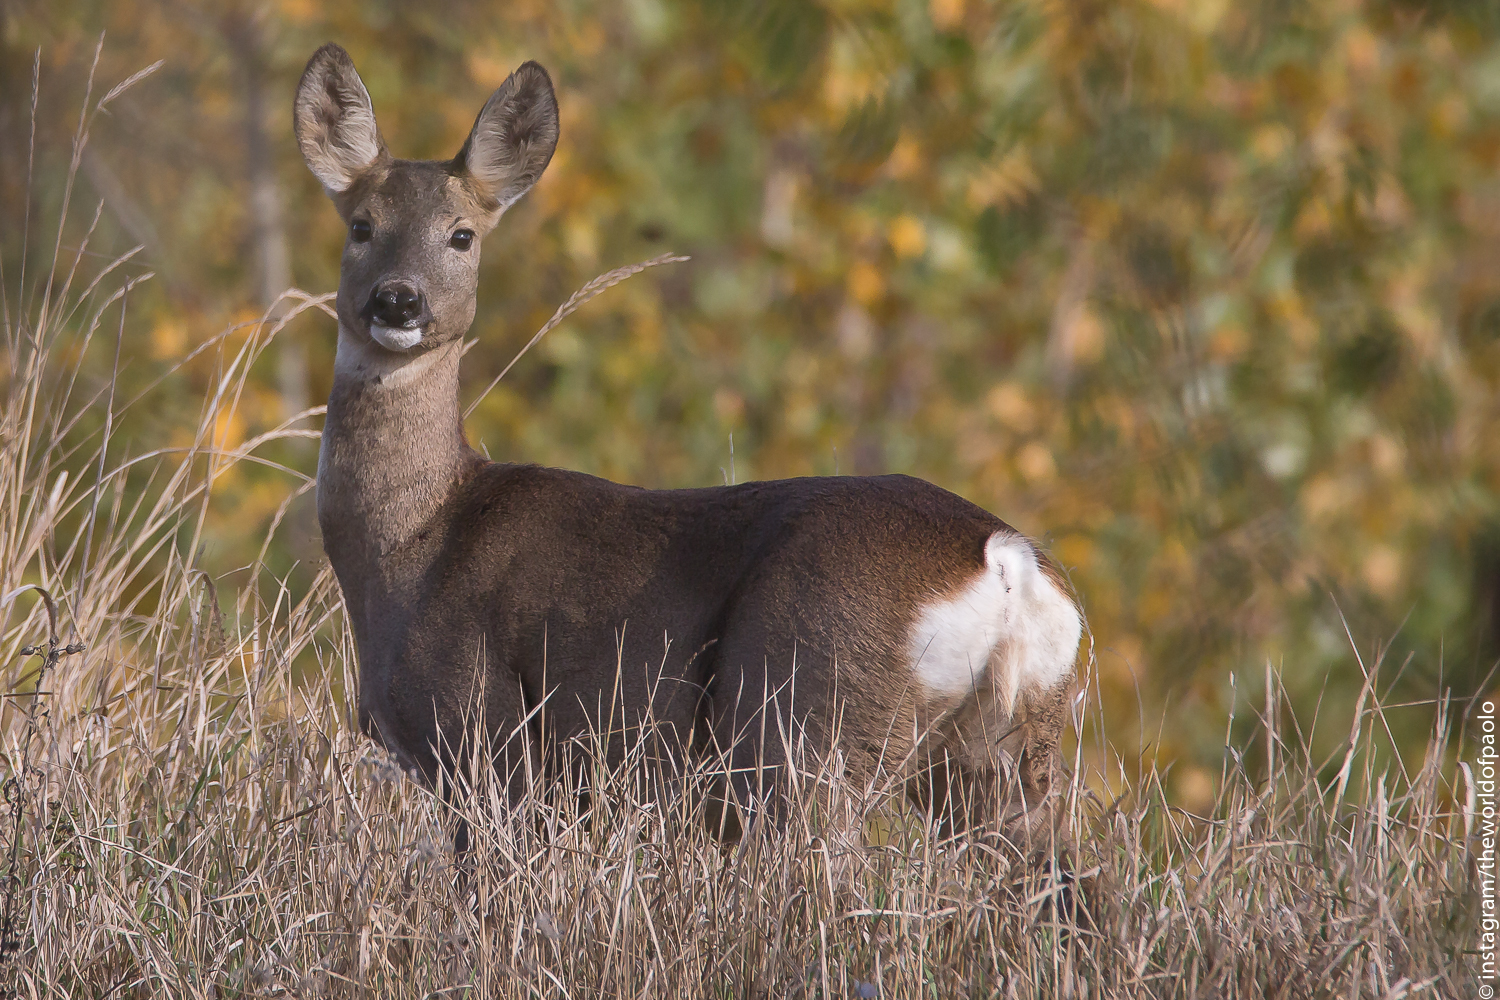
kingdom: Animalia
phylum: Chordata
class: Mammalia
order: Artiodactyla
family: Cervidae
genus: Capreolus
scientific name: Capreolus capreolus
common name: Western roe deer
